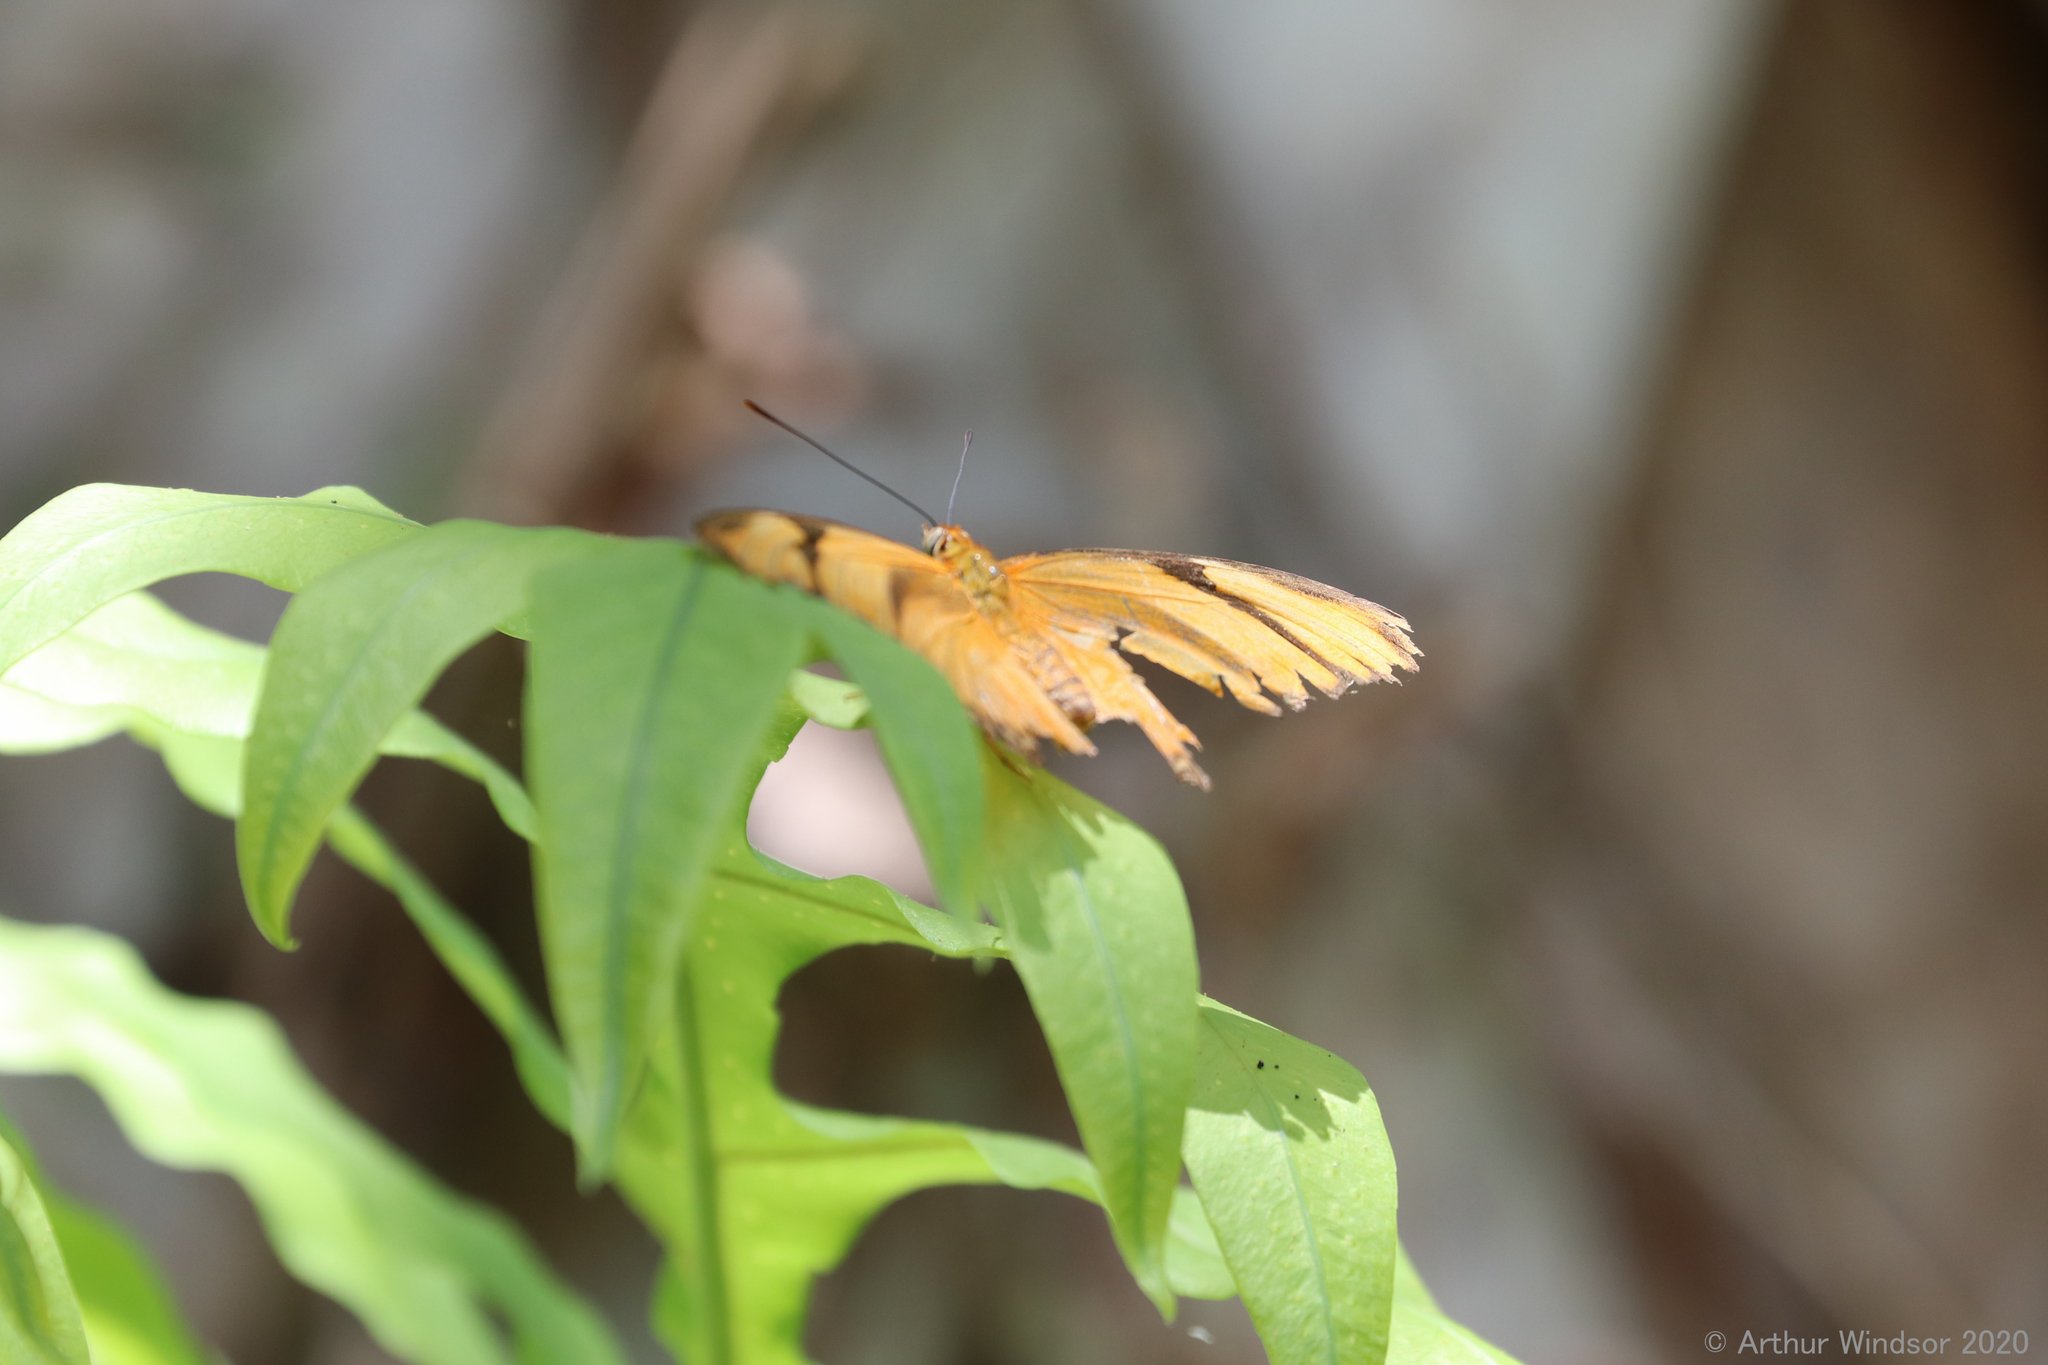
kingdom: Animalia
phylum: Arthropoda
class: Insecta
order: Lepidoptera
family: Nymphalidae
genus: Dryas
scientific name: Dryas iulia
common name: Flambeau
